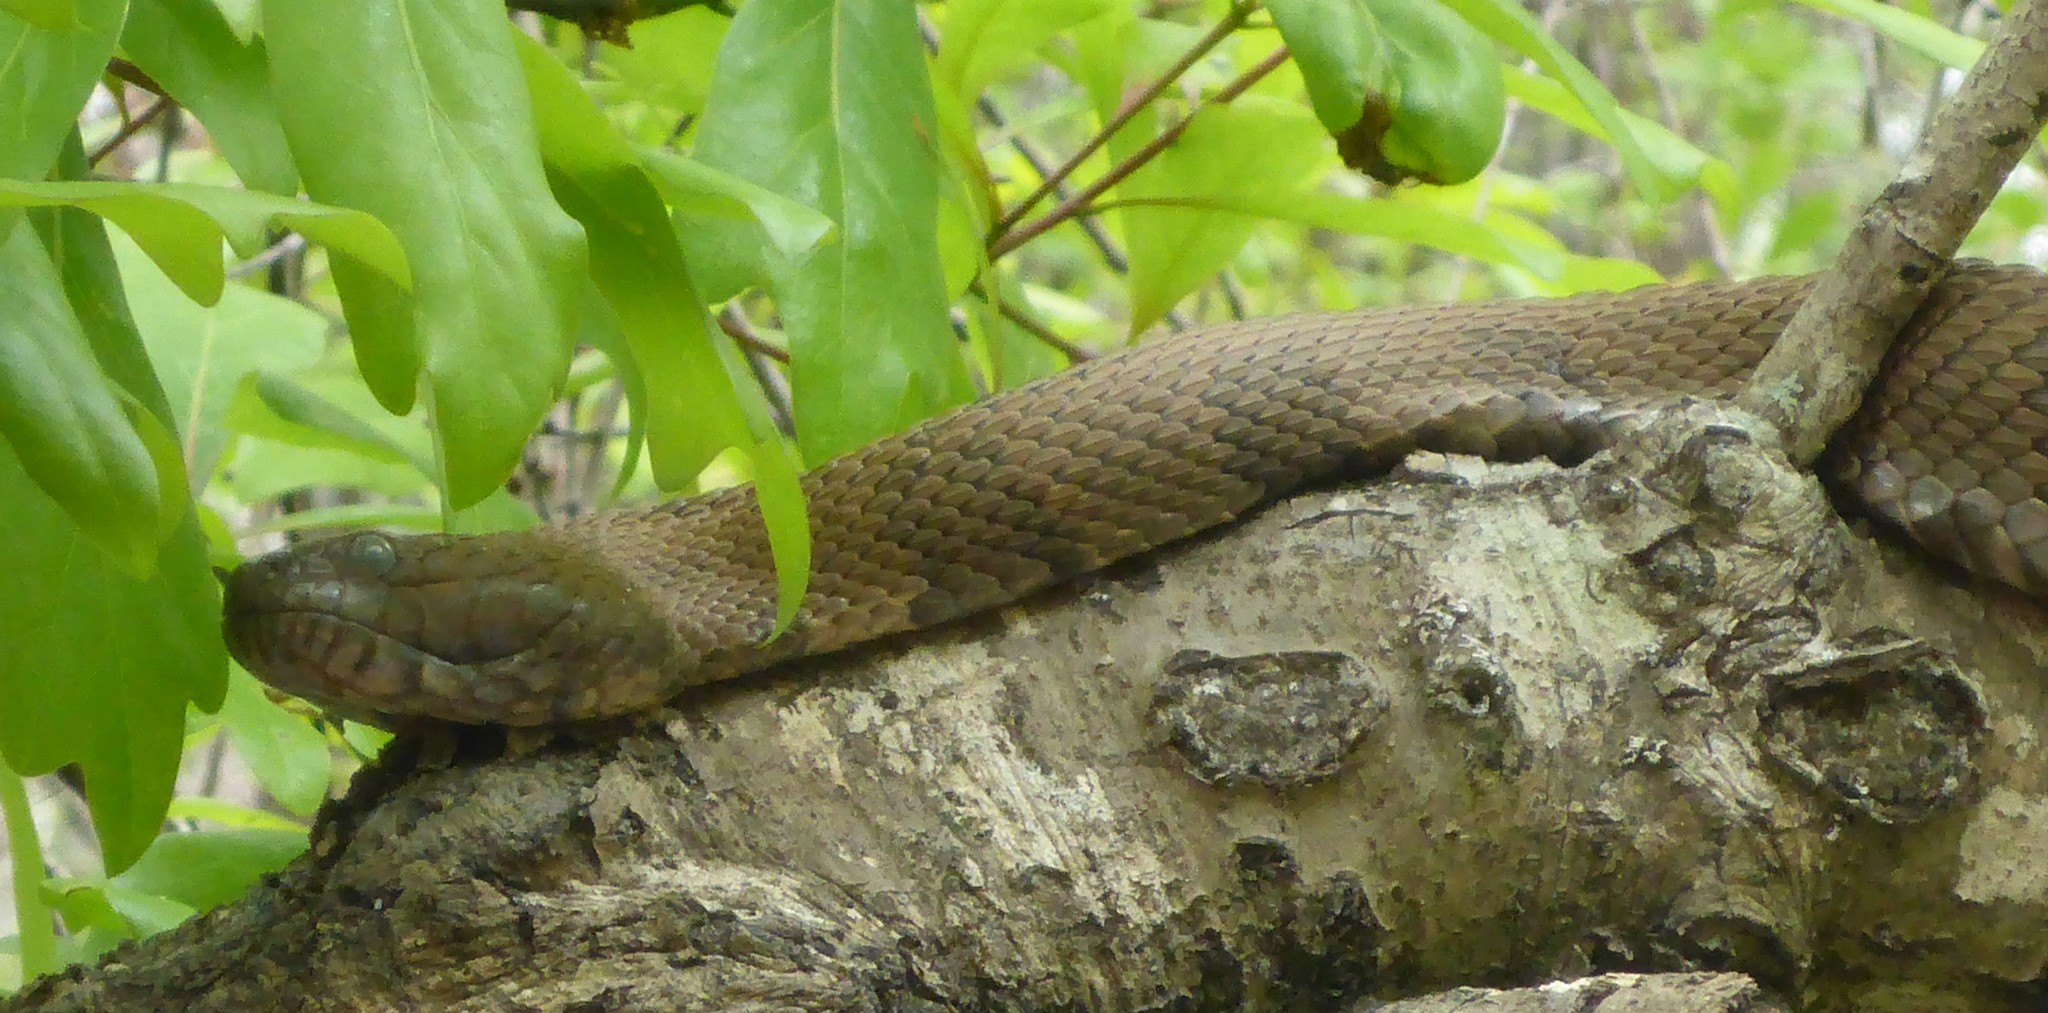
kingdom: Animalia
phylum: Chordata
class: Squamata
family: Colubridae
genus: Nerodia
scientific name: Nerodia taxispilota
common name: Brown water snake
